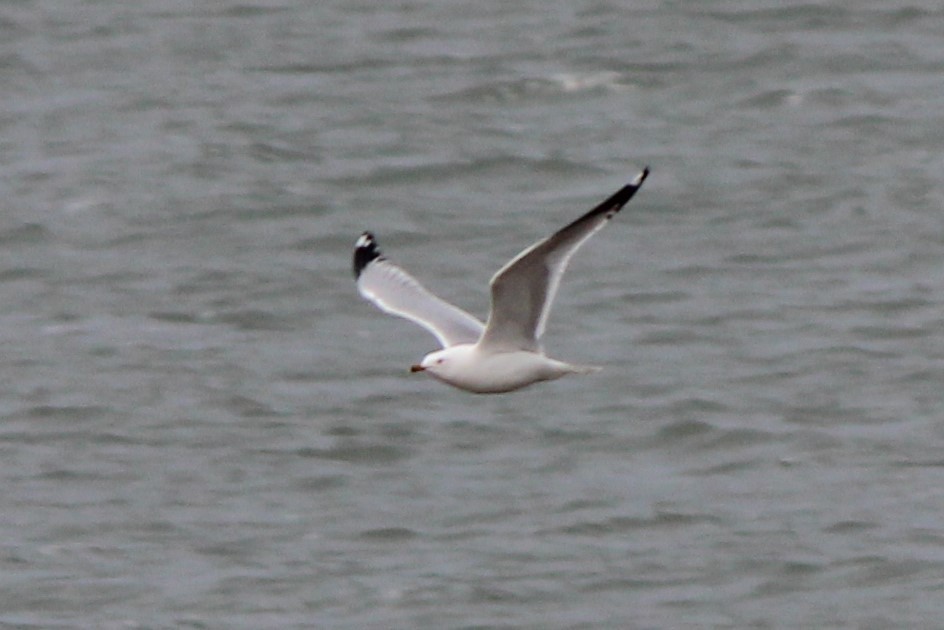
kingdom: Animalia
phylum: Chordata
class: Aves
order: Charadriiformes
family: Laridae
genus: Larus
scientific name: Larus delawarensis
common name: Ring-billed gull
